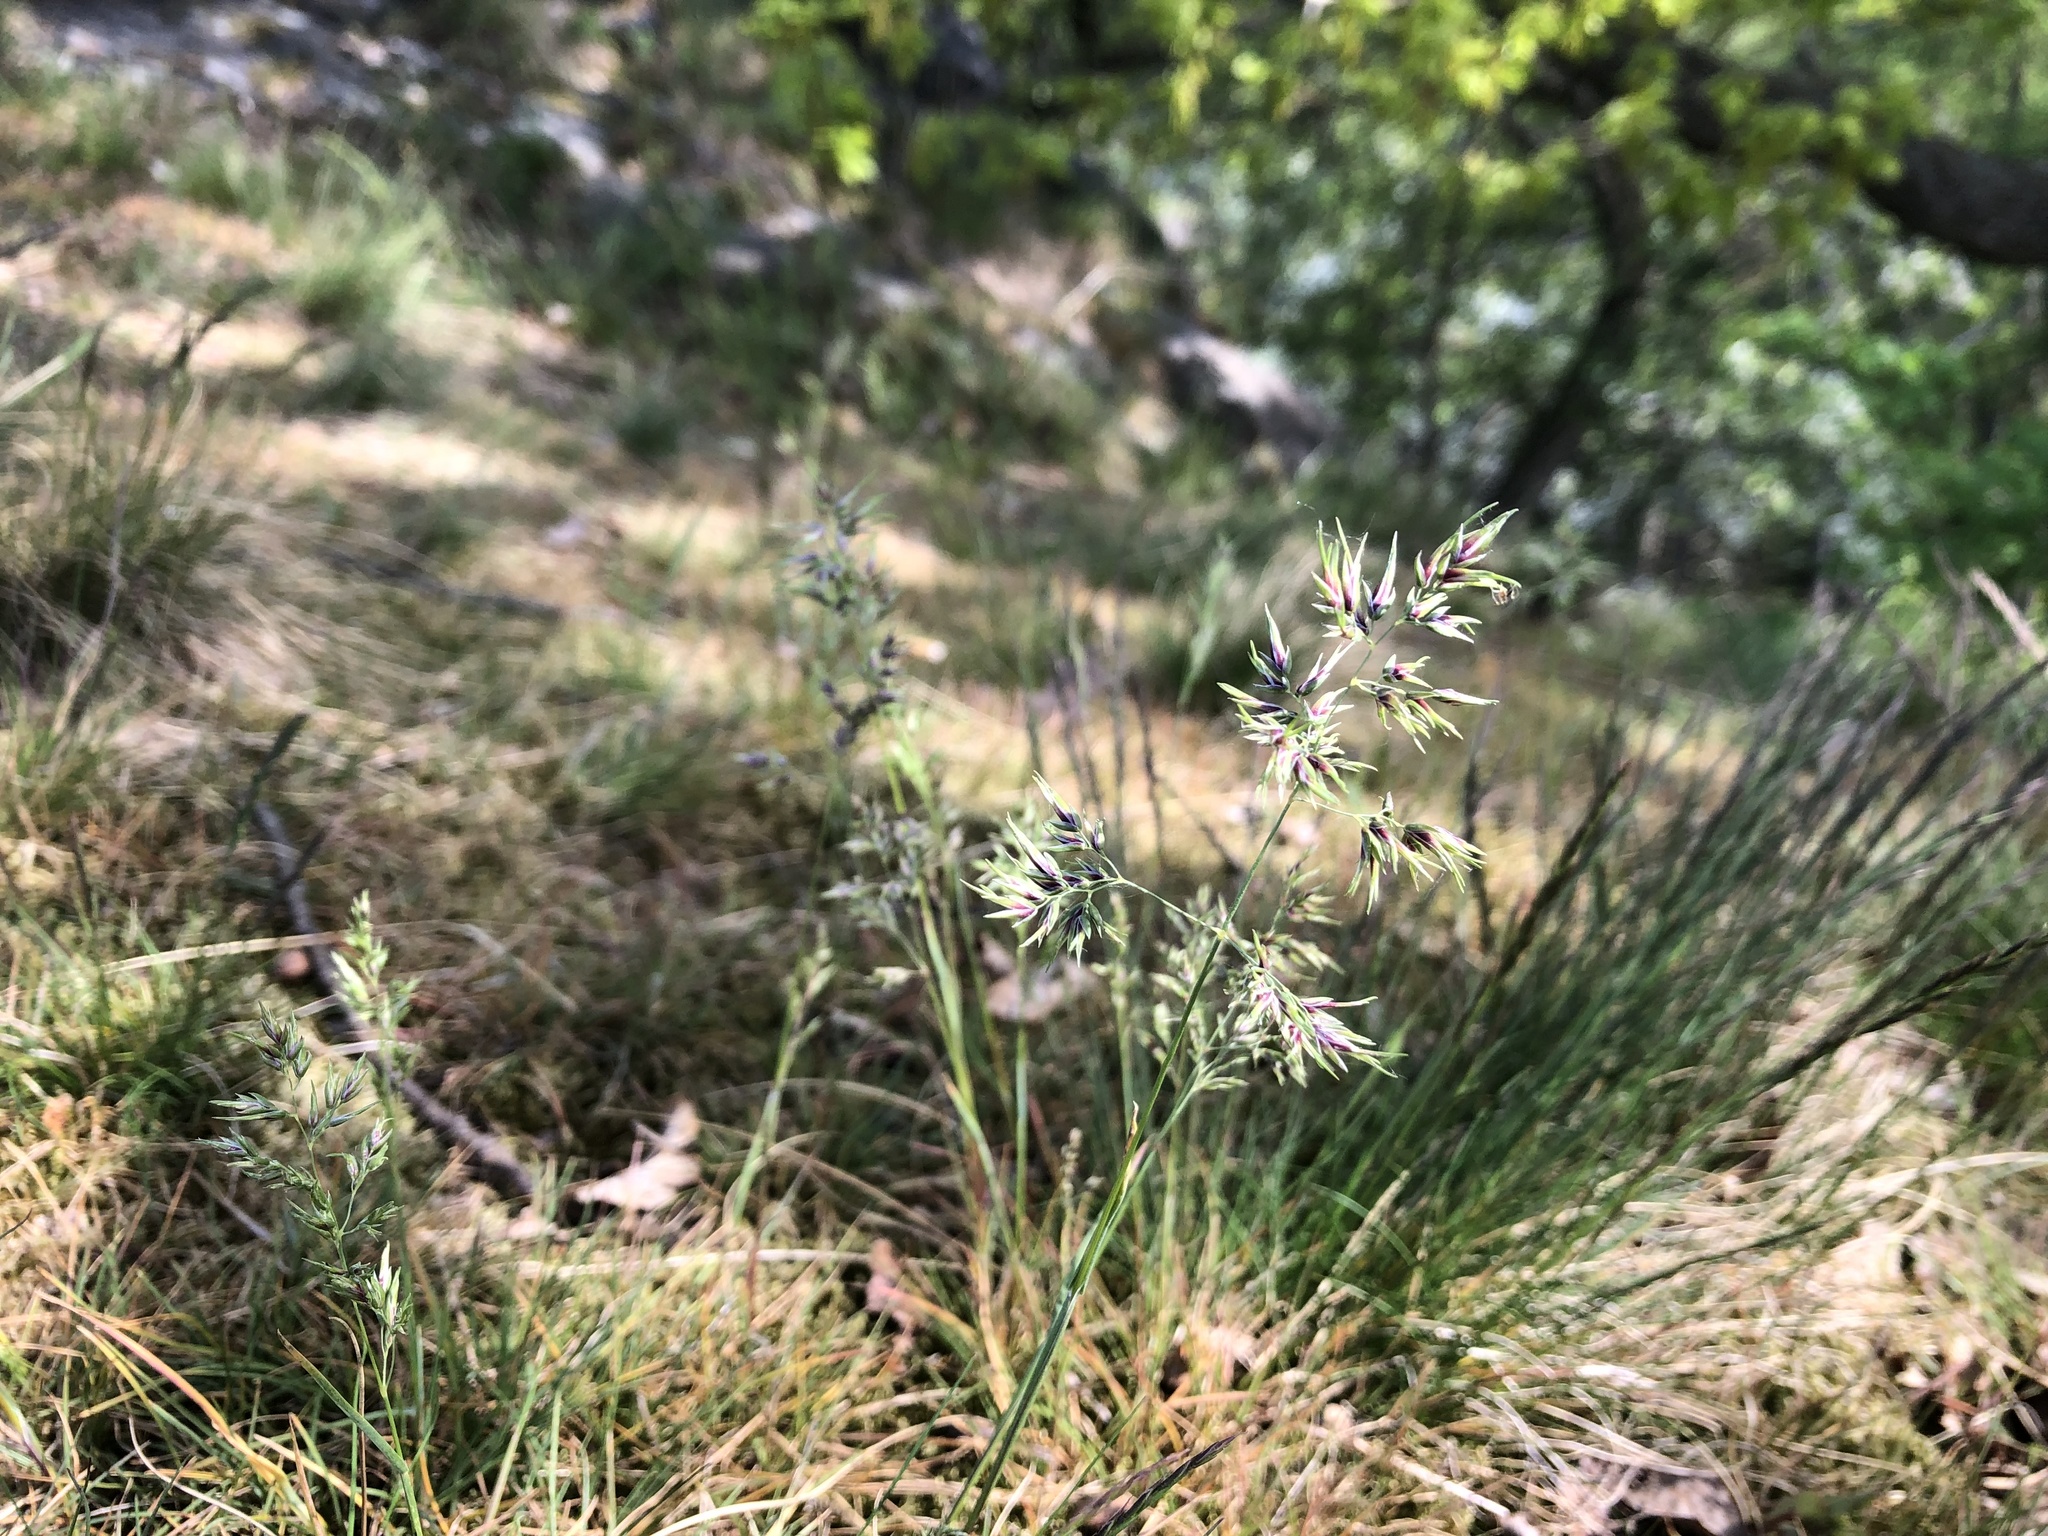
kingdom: Plantae
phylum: Tracheophyta
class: Liliopsida
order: Poales
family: Poaceae
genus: Poa
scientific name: Poa bulbosa
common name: Bulbous bluegrass
